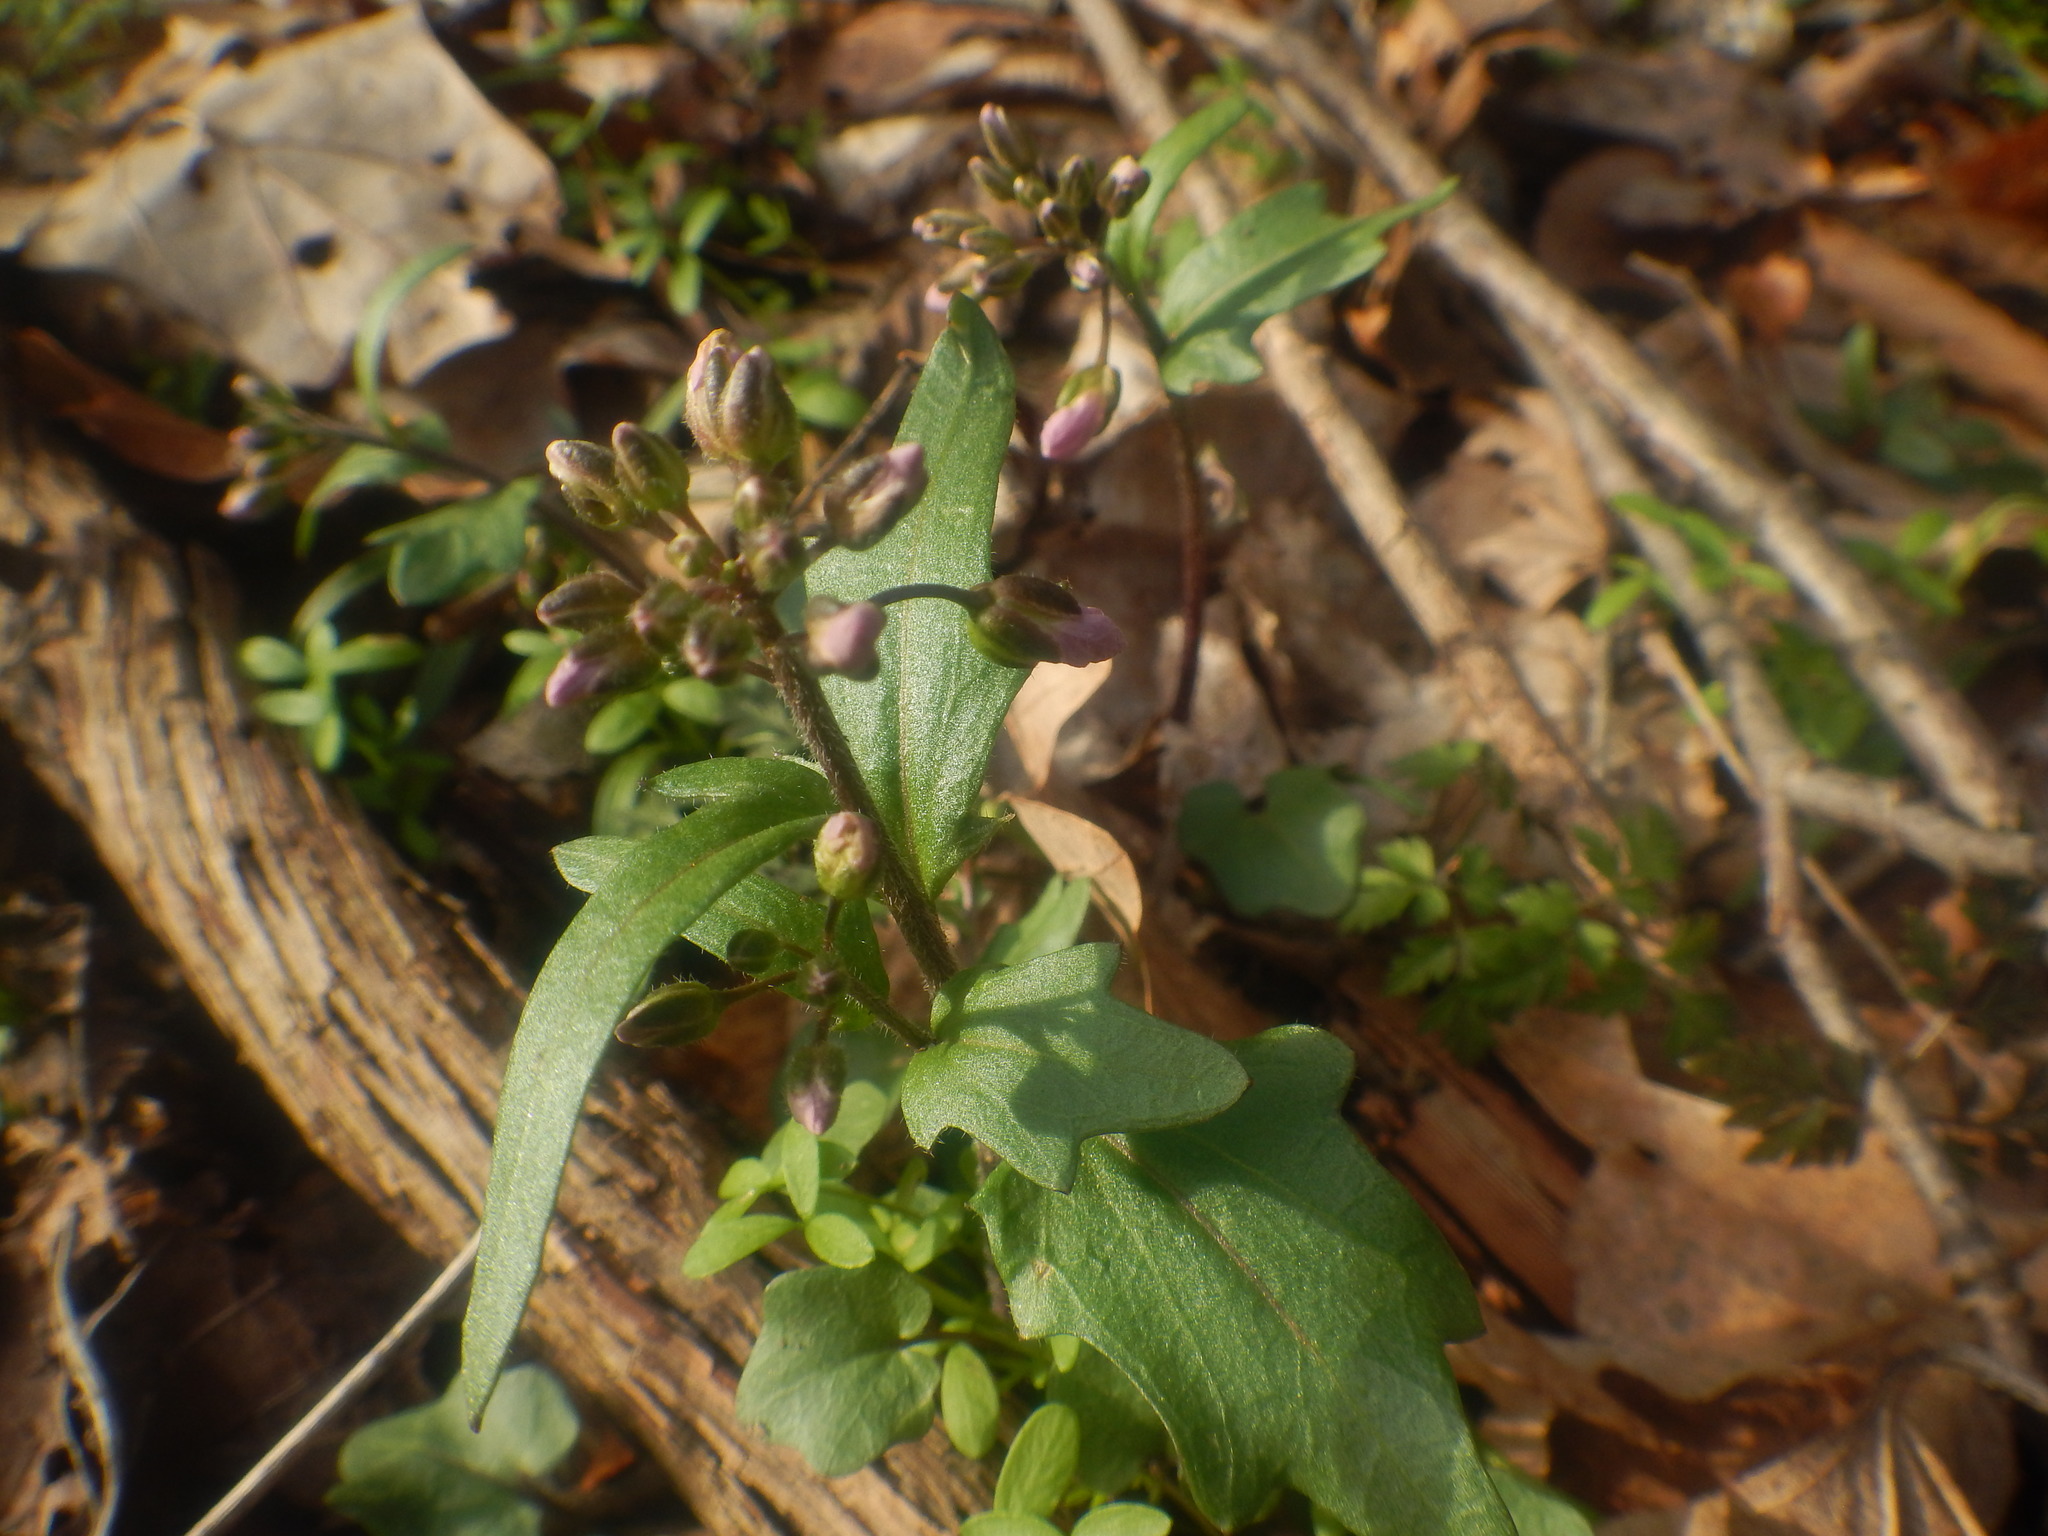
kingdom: Plantae
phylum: Tracheophyta
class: Magnoliopsida
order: Brassicales
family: Brassicaceae
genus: Cardamine
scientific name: Cardamine douglassii
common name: Purple cress
